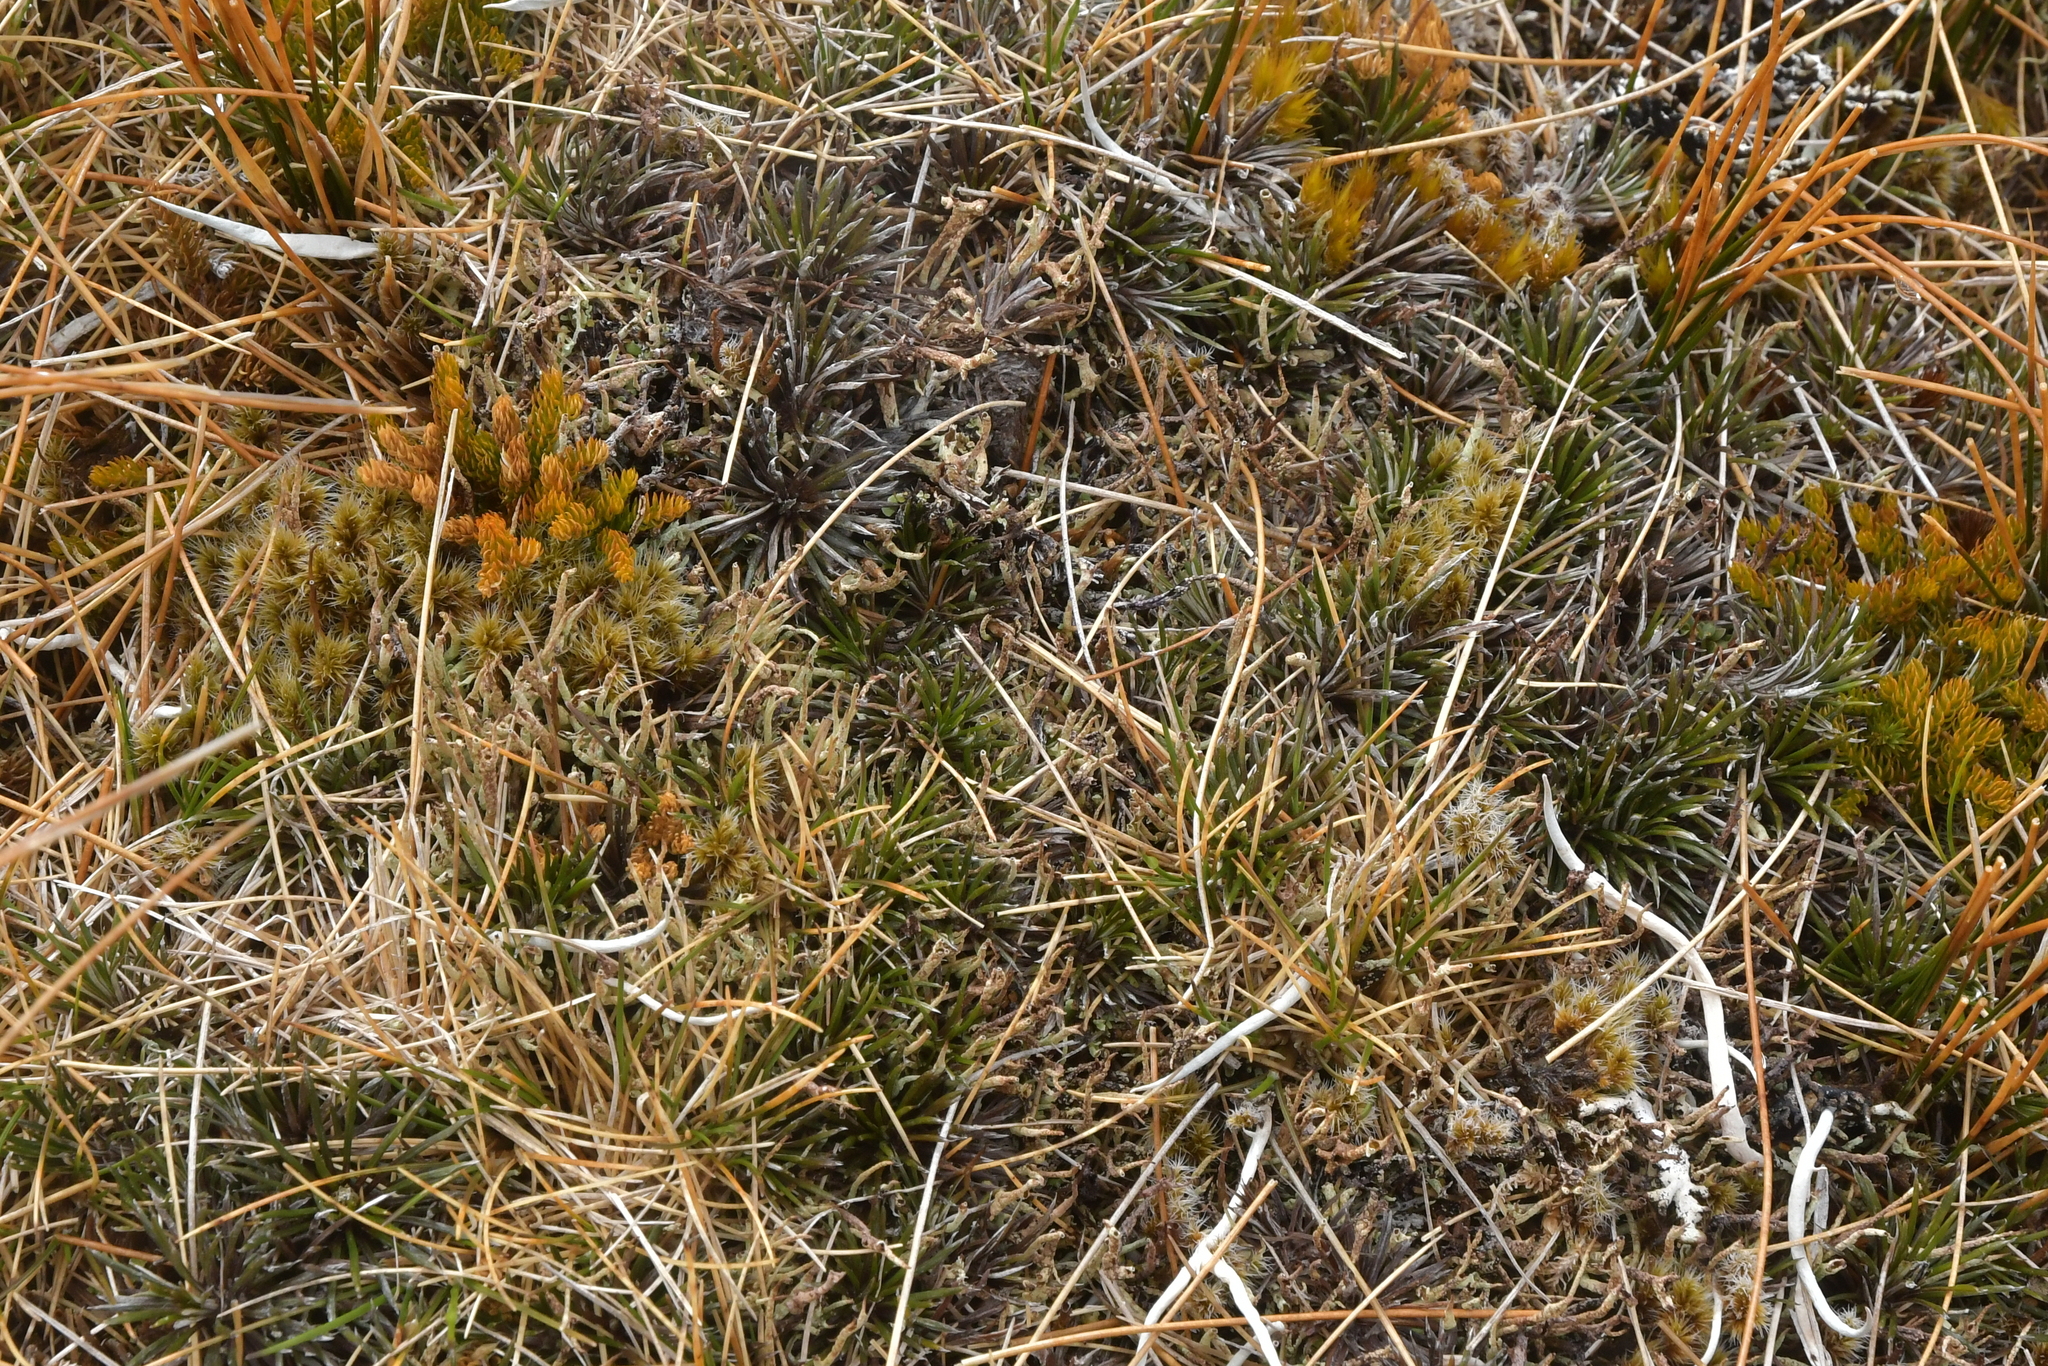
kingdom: Plantae
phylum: Tracheophyta
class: Magnoliopsida
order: Asterales
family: Asteraceae
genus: Celmisia
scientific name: Celmisia laricifolia
